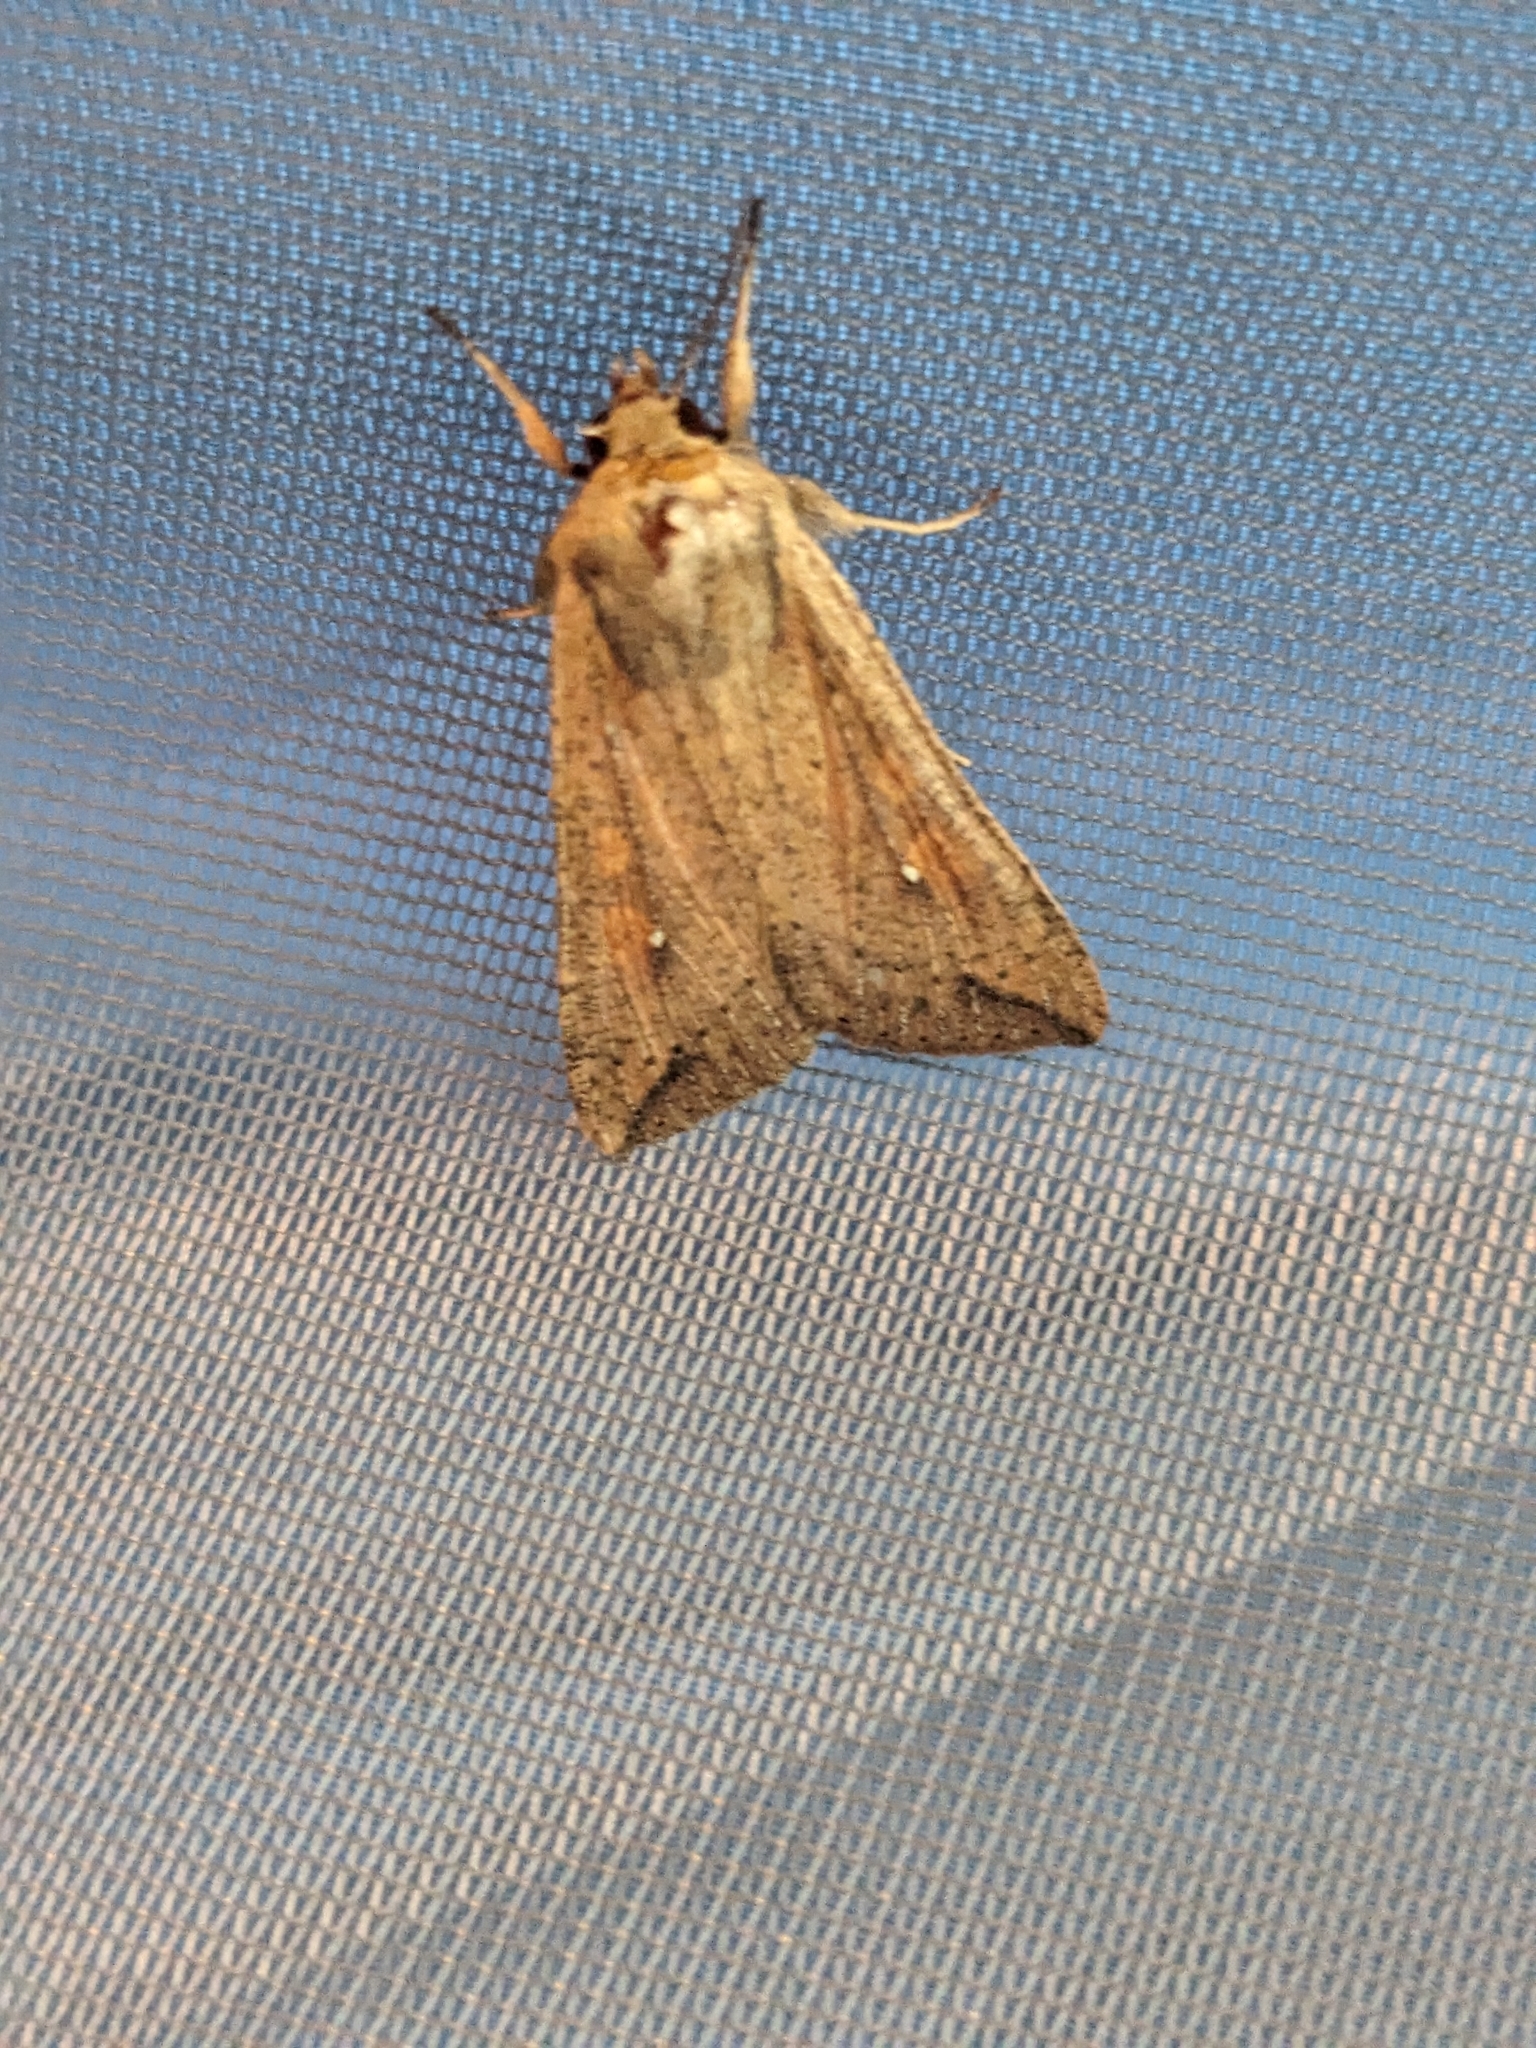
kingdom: Animalia
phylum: Arthropoda
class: Insecta
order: Lepidoptera
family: Noctuidae
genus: Mythimna
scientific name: Mythimna unipuncta
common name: White-speck
